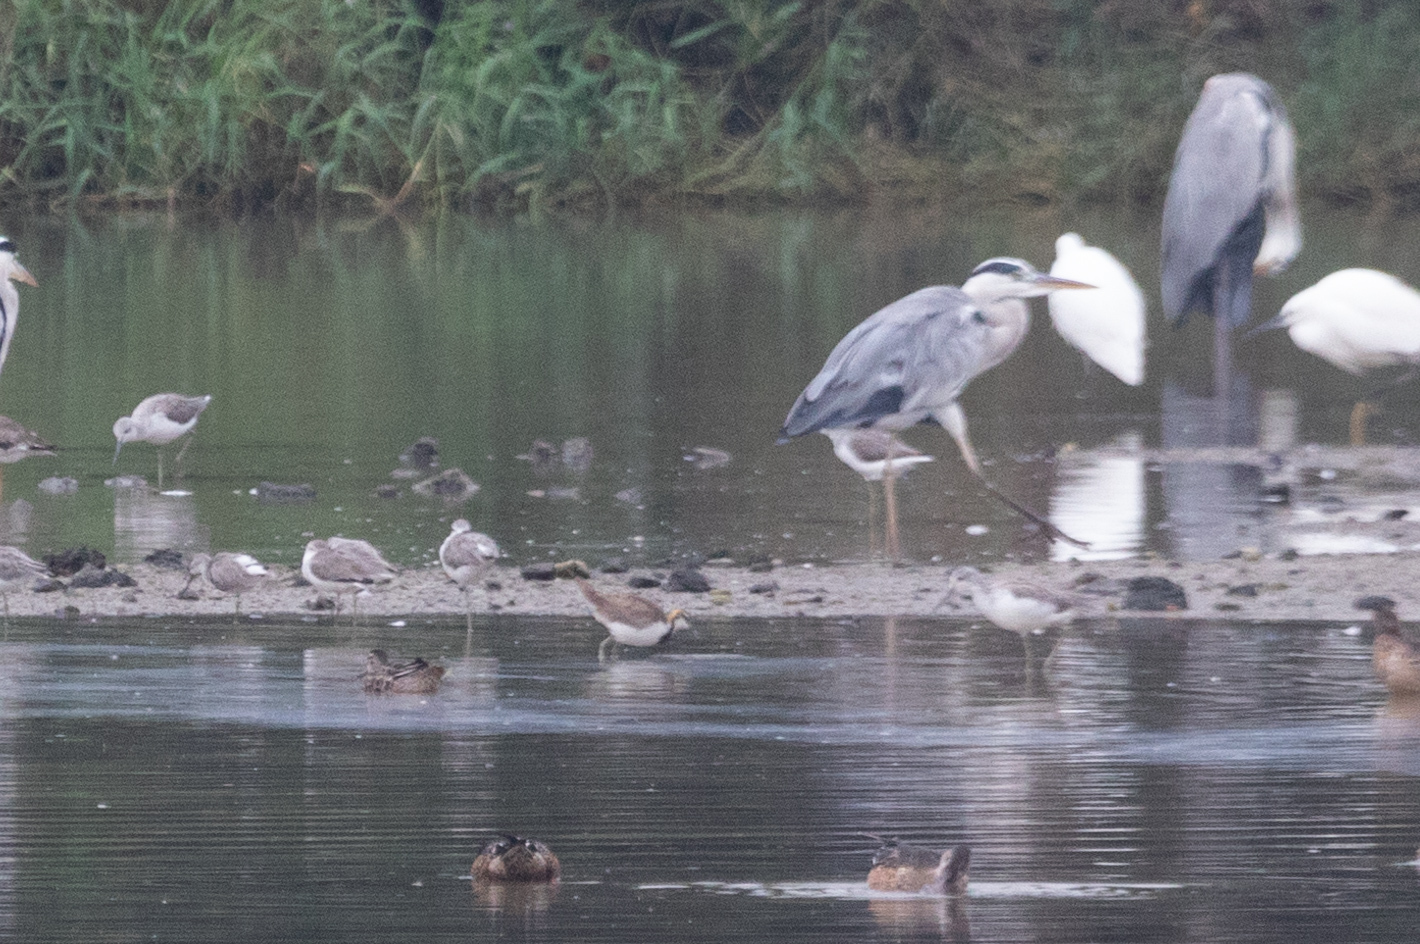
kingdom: Animalia
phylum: Chordata
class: Aves
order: Charadriiformes
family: Jacanidae
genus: Hydrophasianus
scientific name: Hydrophasianus chirurgus
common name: Pheasant-tailed jacana
